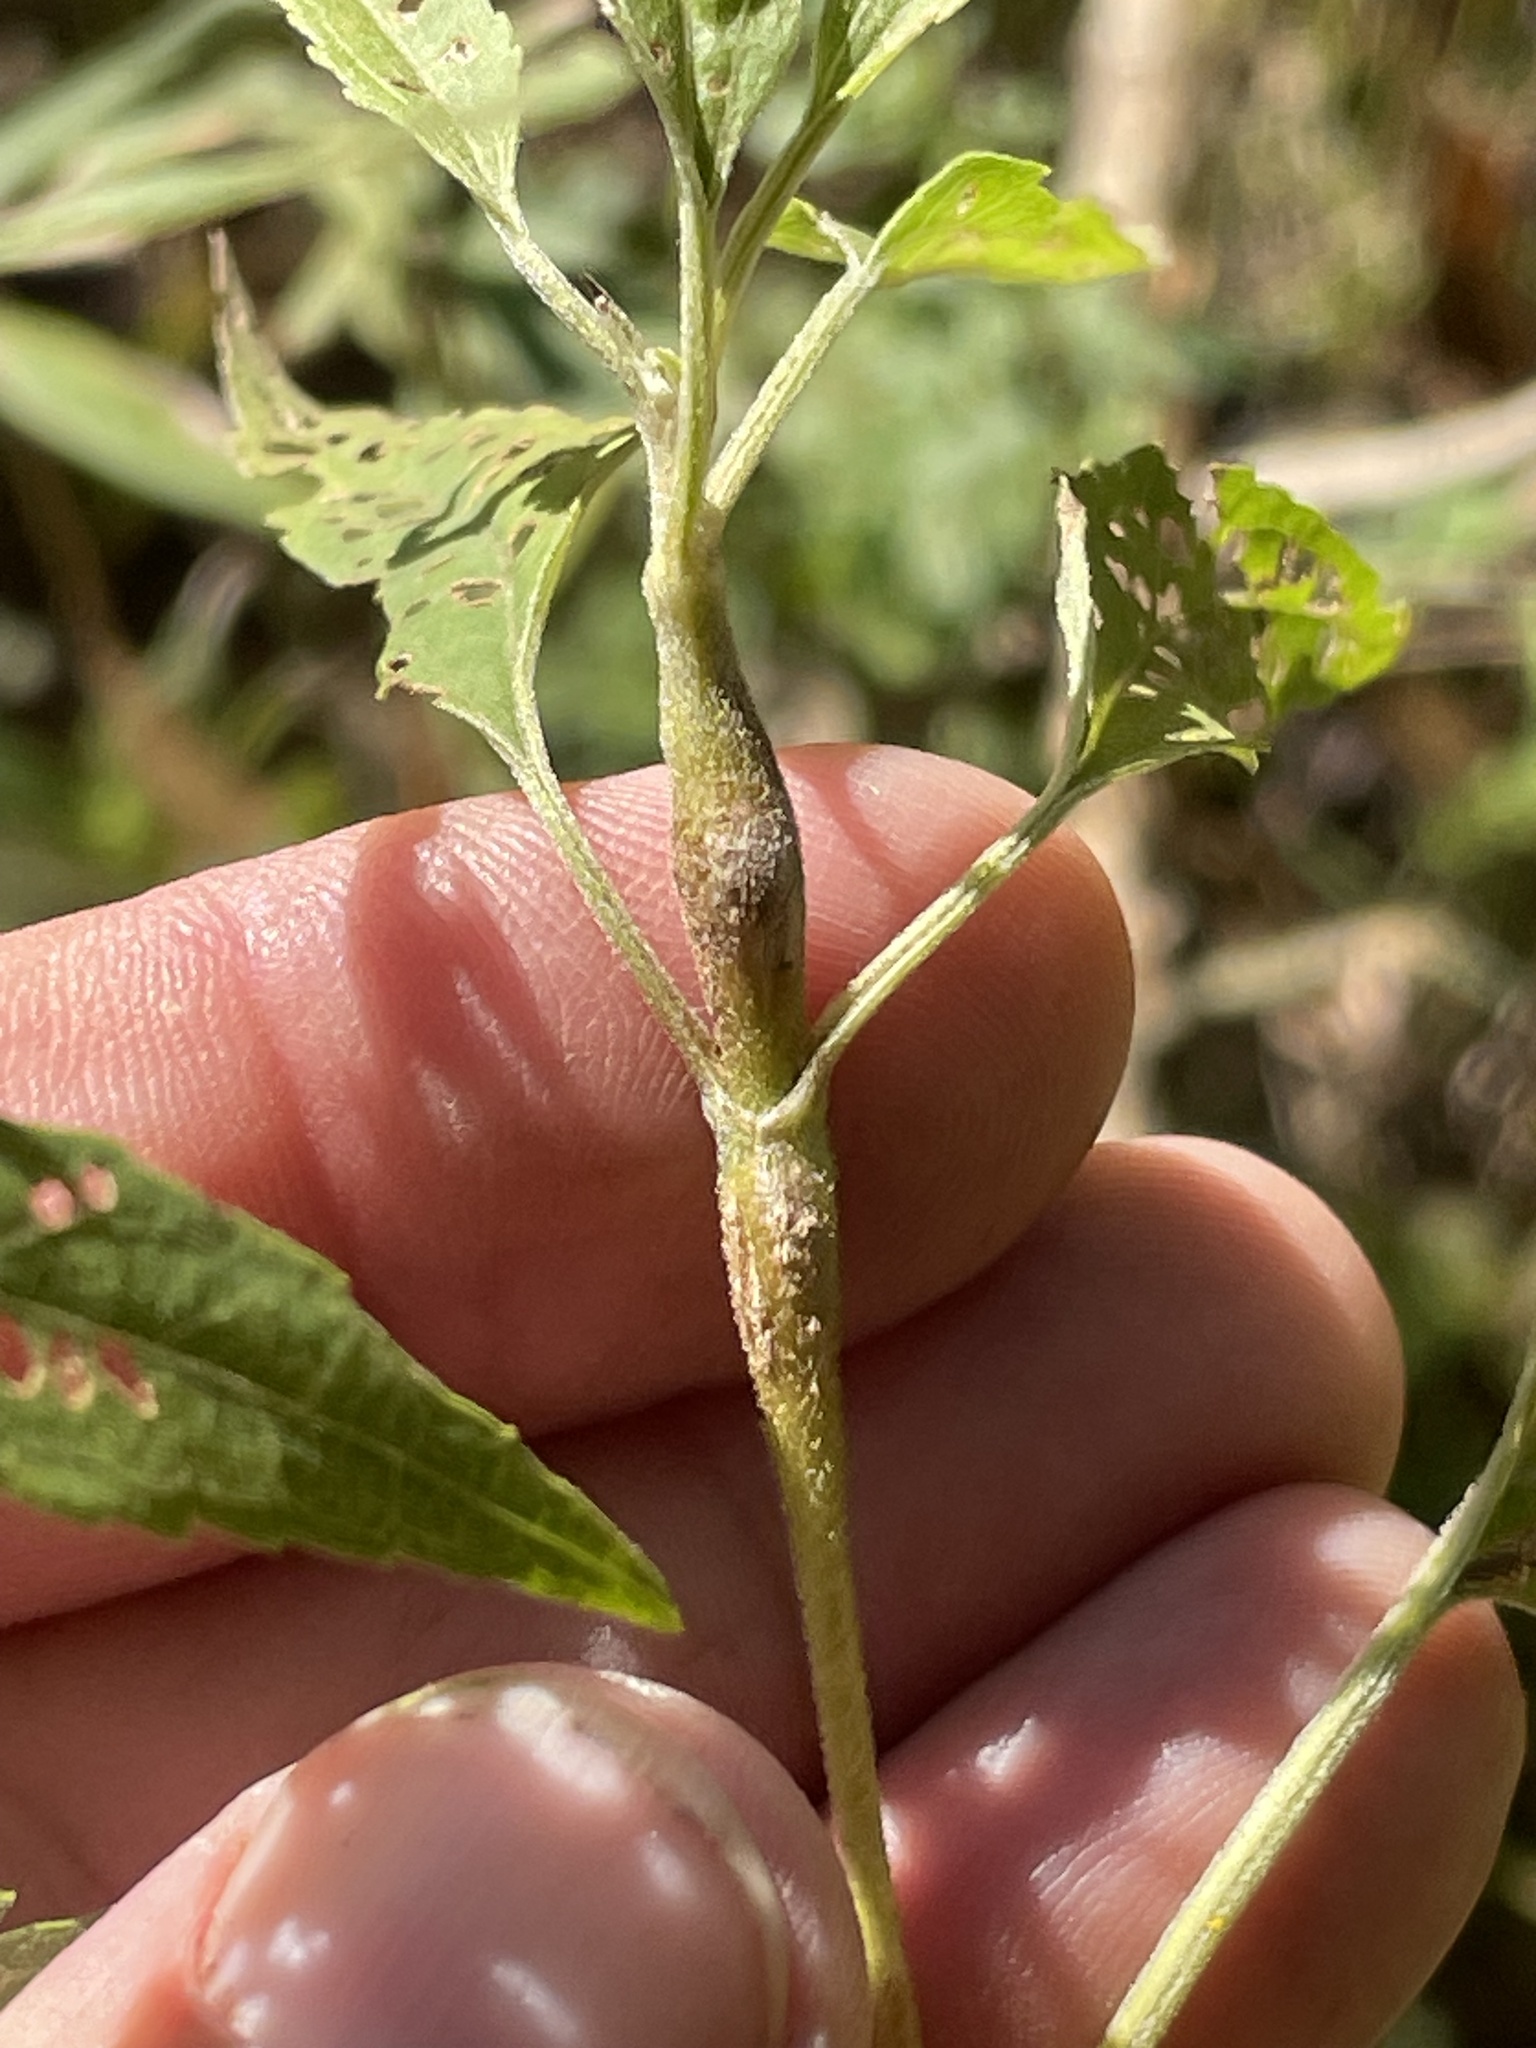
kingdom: Animalia
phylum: Arthropoda
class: Insecta
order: Diptera
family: Cecidomyiidae
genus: Neolasioptera
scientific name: Neolasioptera perfoliata
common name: Boneset stem midge
